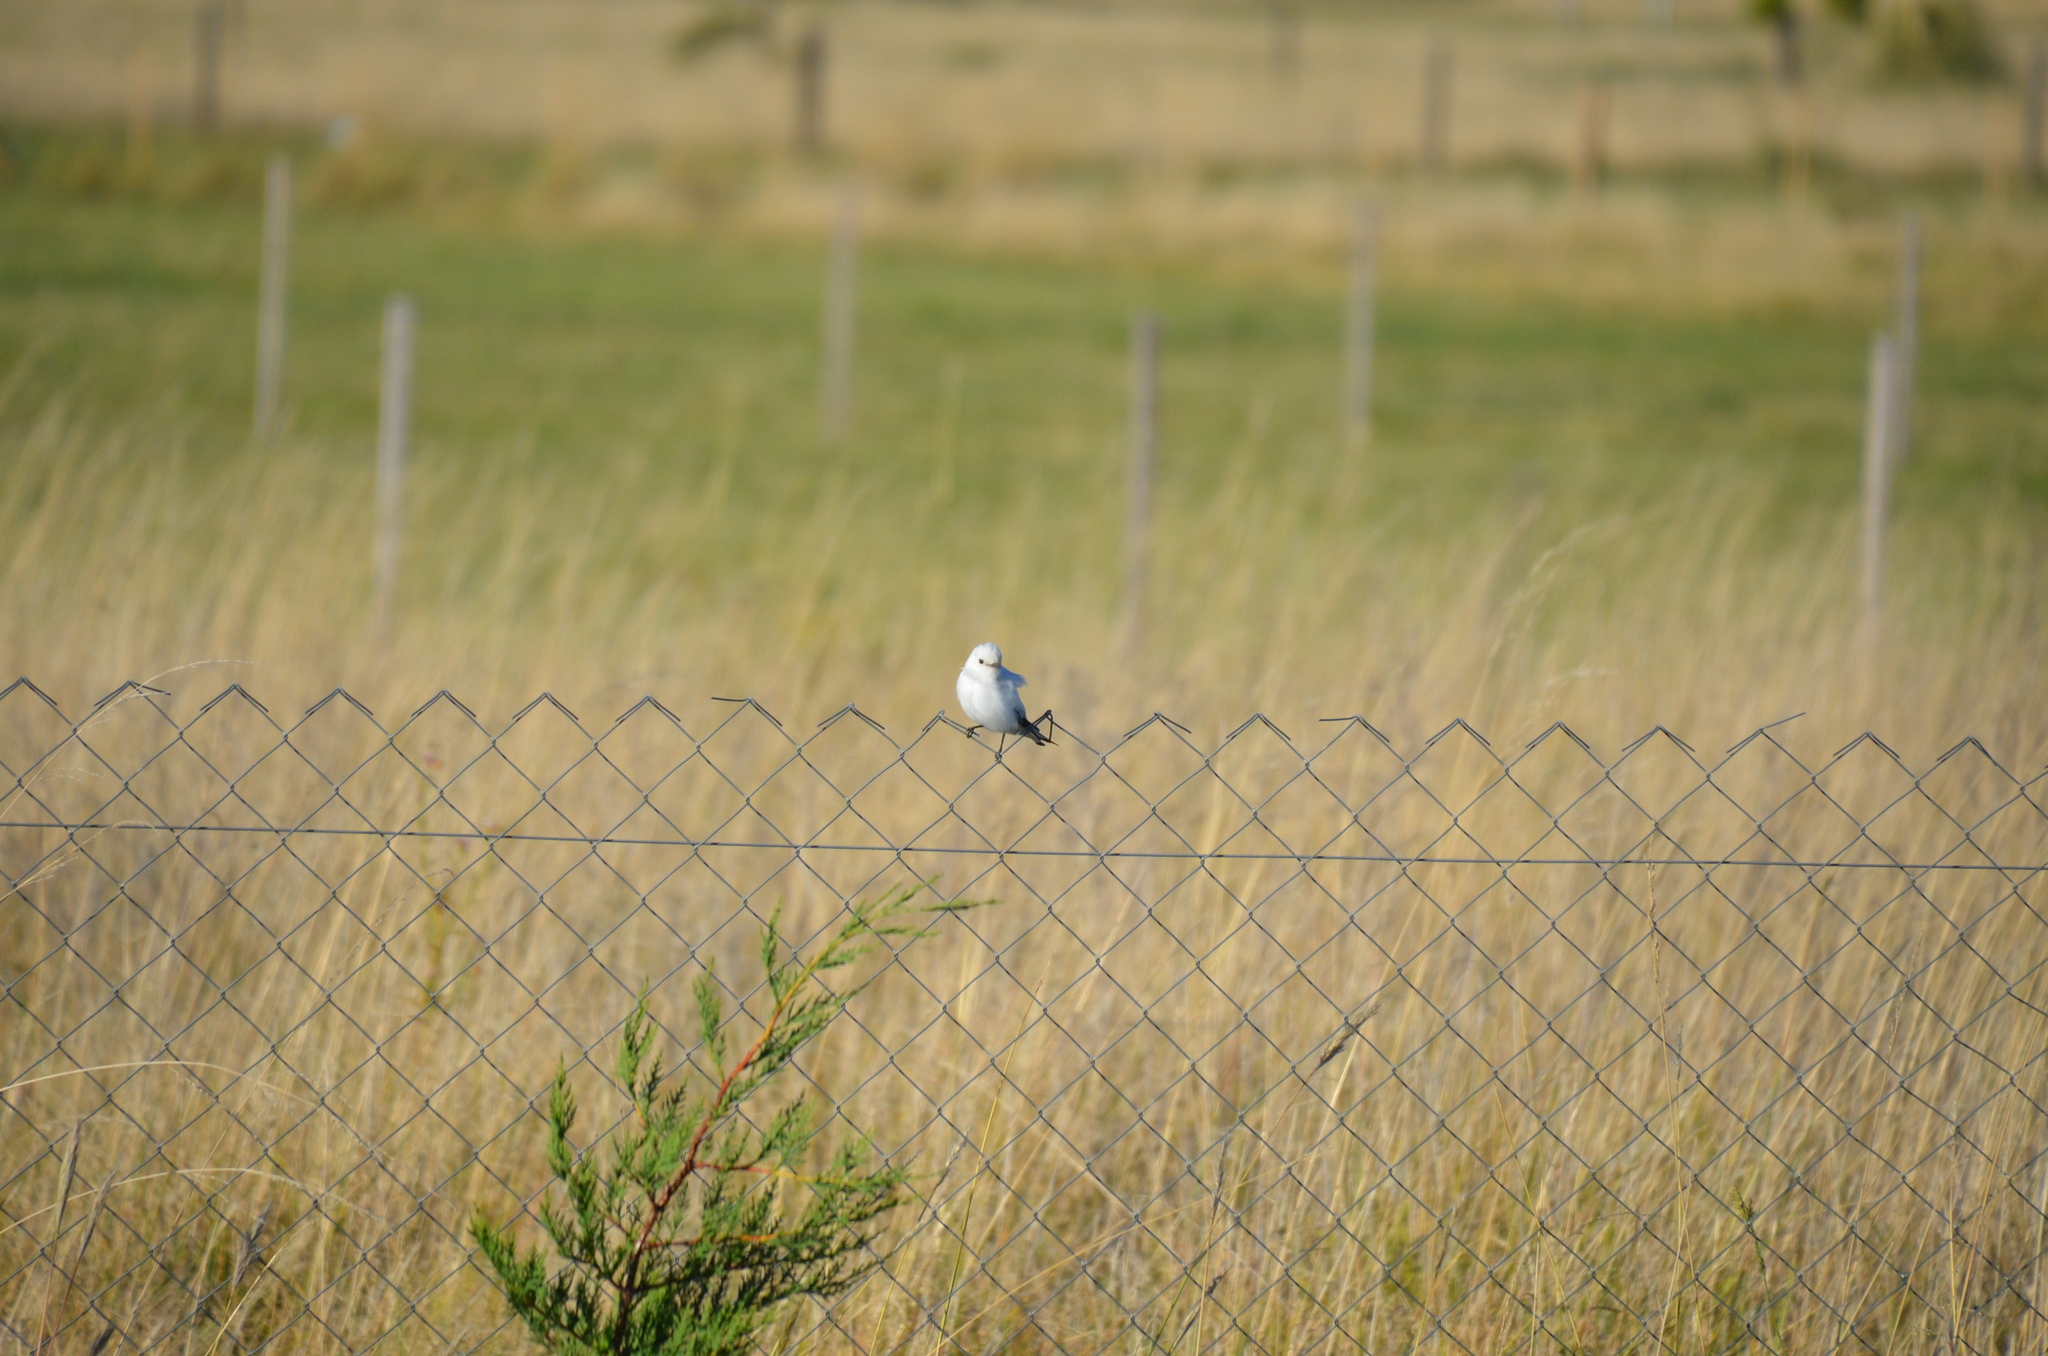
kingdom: Animalia
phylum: Chordata
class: Aves
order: Passeriformes
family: Tyrannidae
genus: Xolmis
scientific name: Xolmis irupero
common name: White monjita
